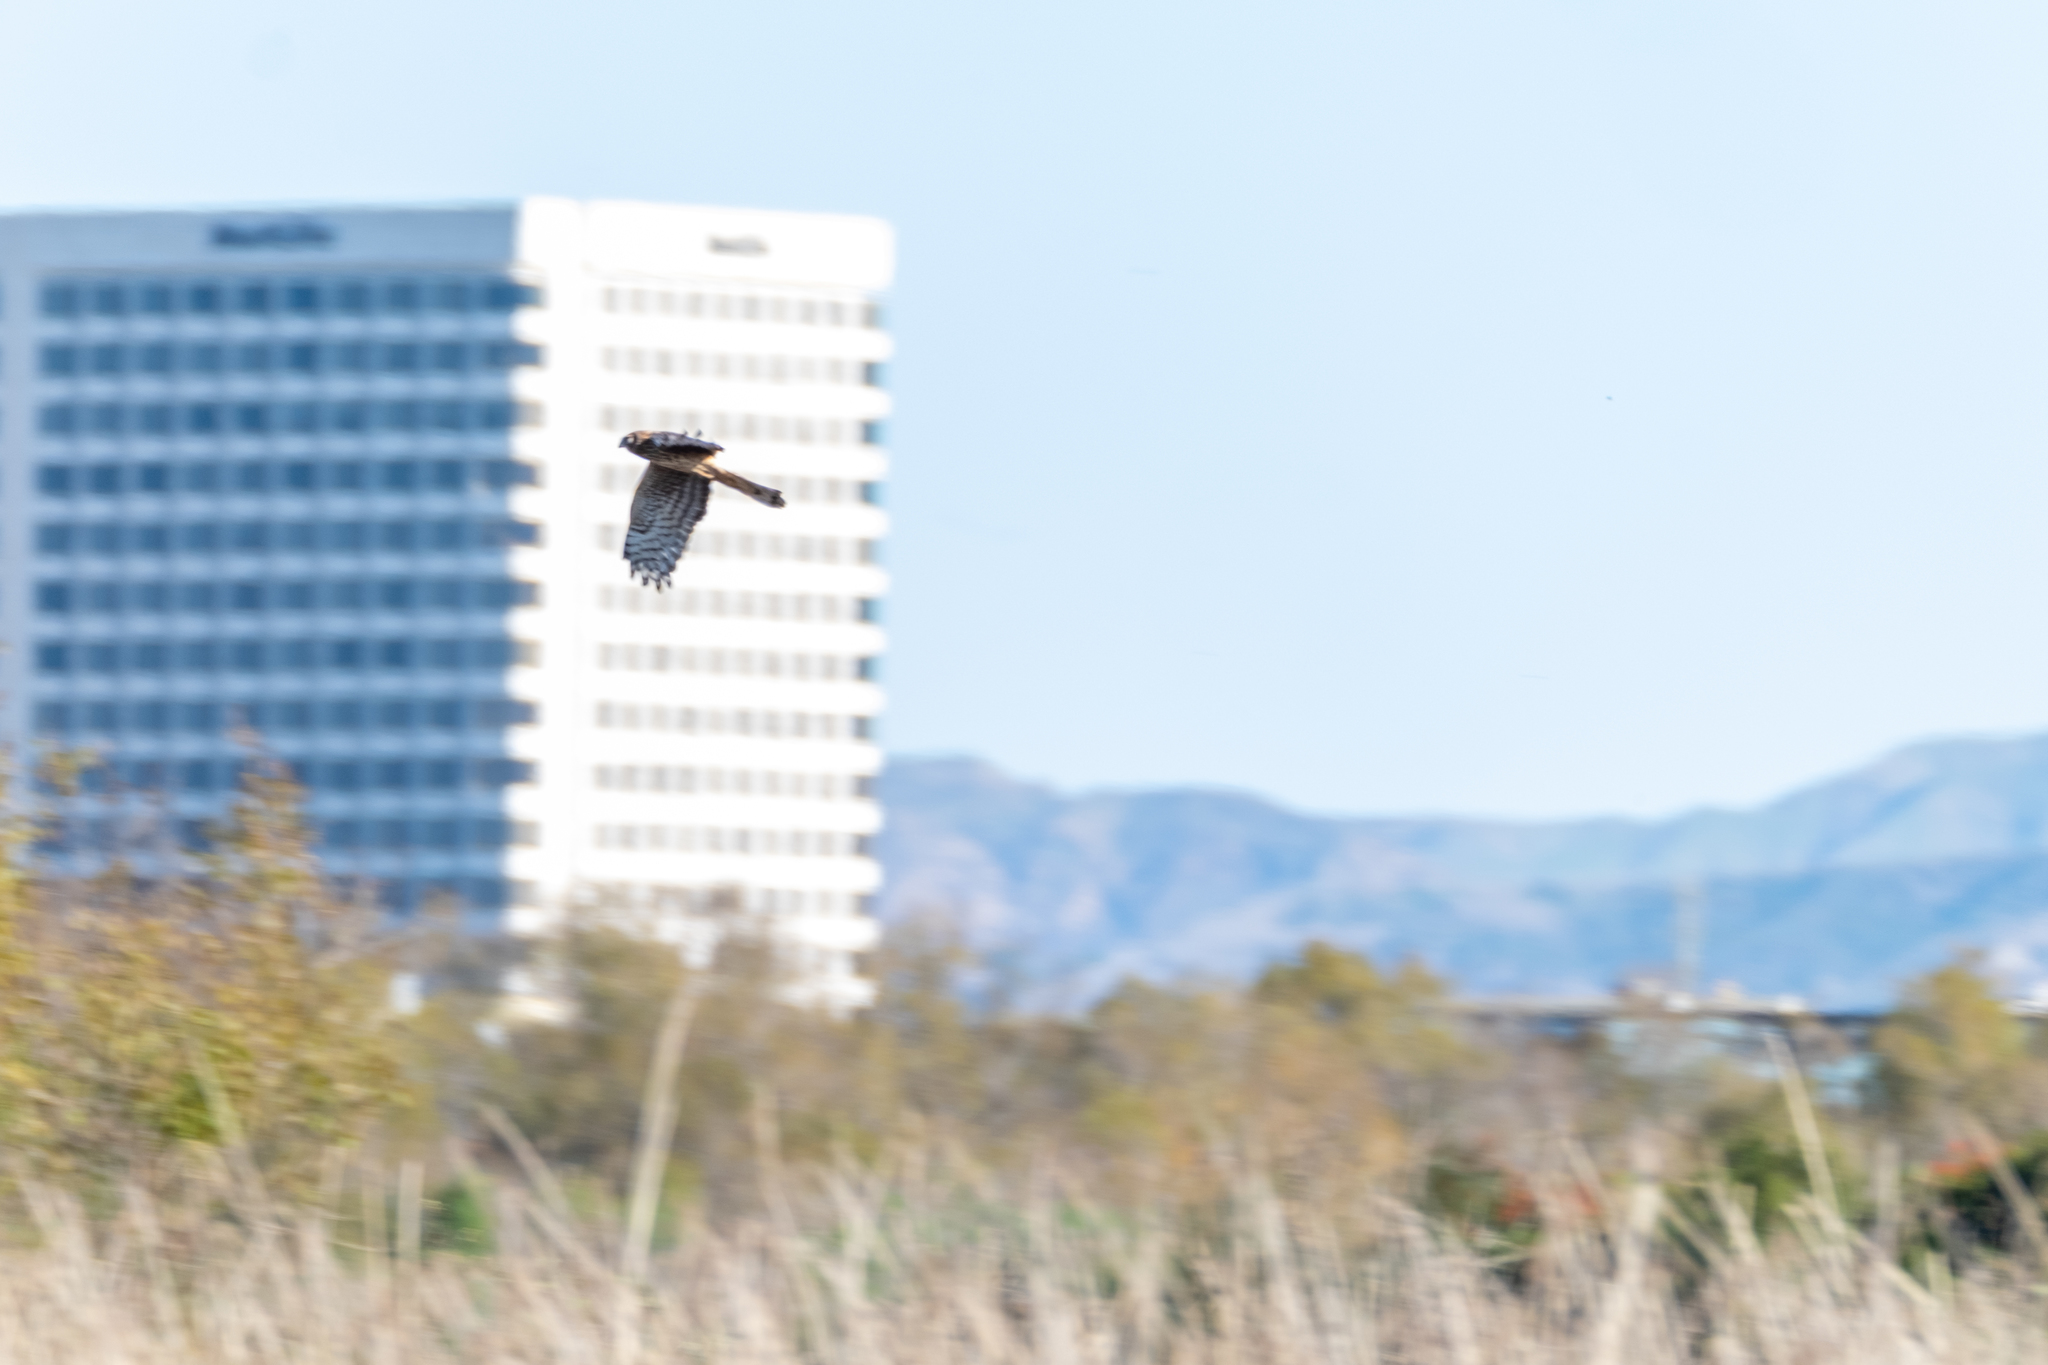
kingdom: Animalia
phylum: Chordata
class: Aves
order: Accipitriformes
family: Accipitridae
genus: Circus
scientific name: Circus cyaneus
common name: Hen harrier
